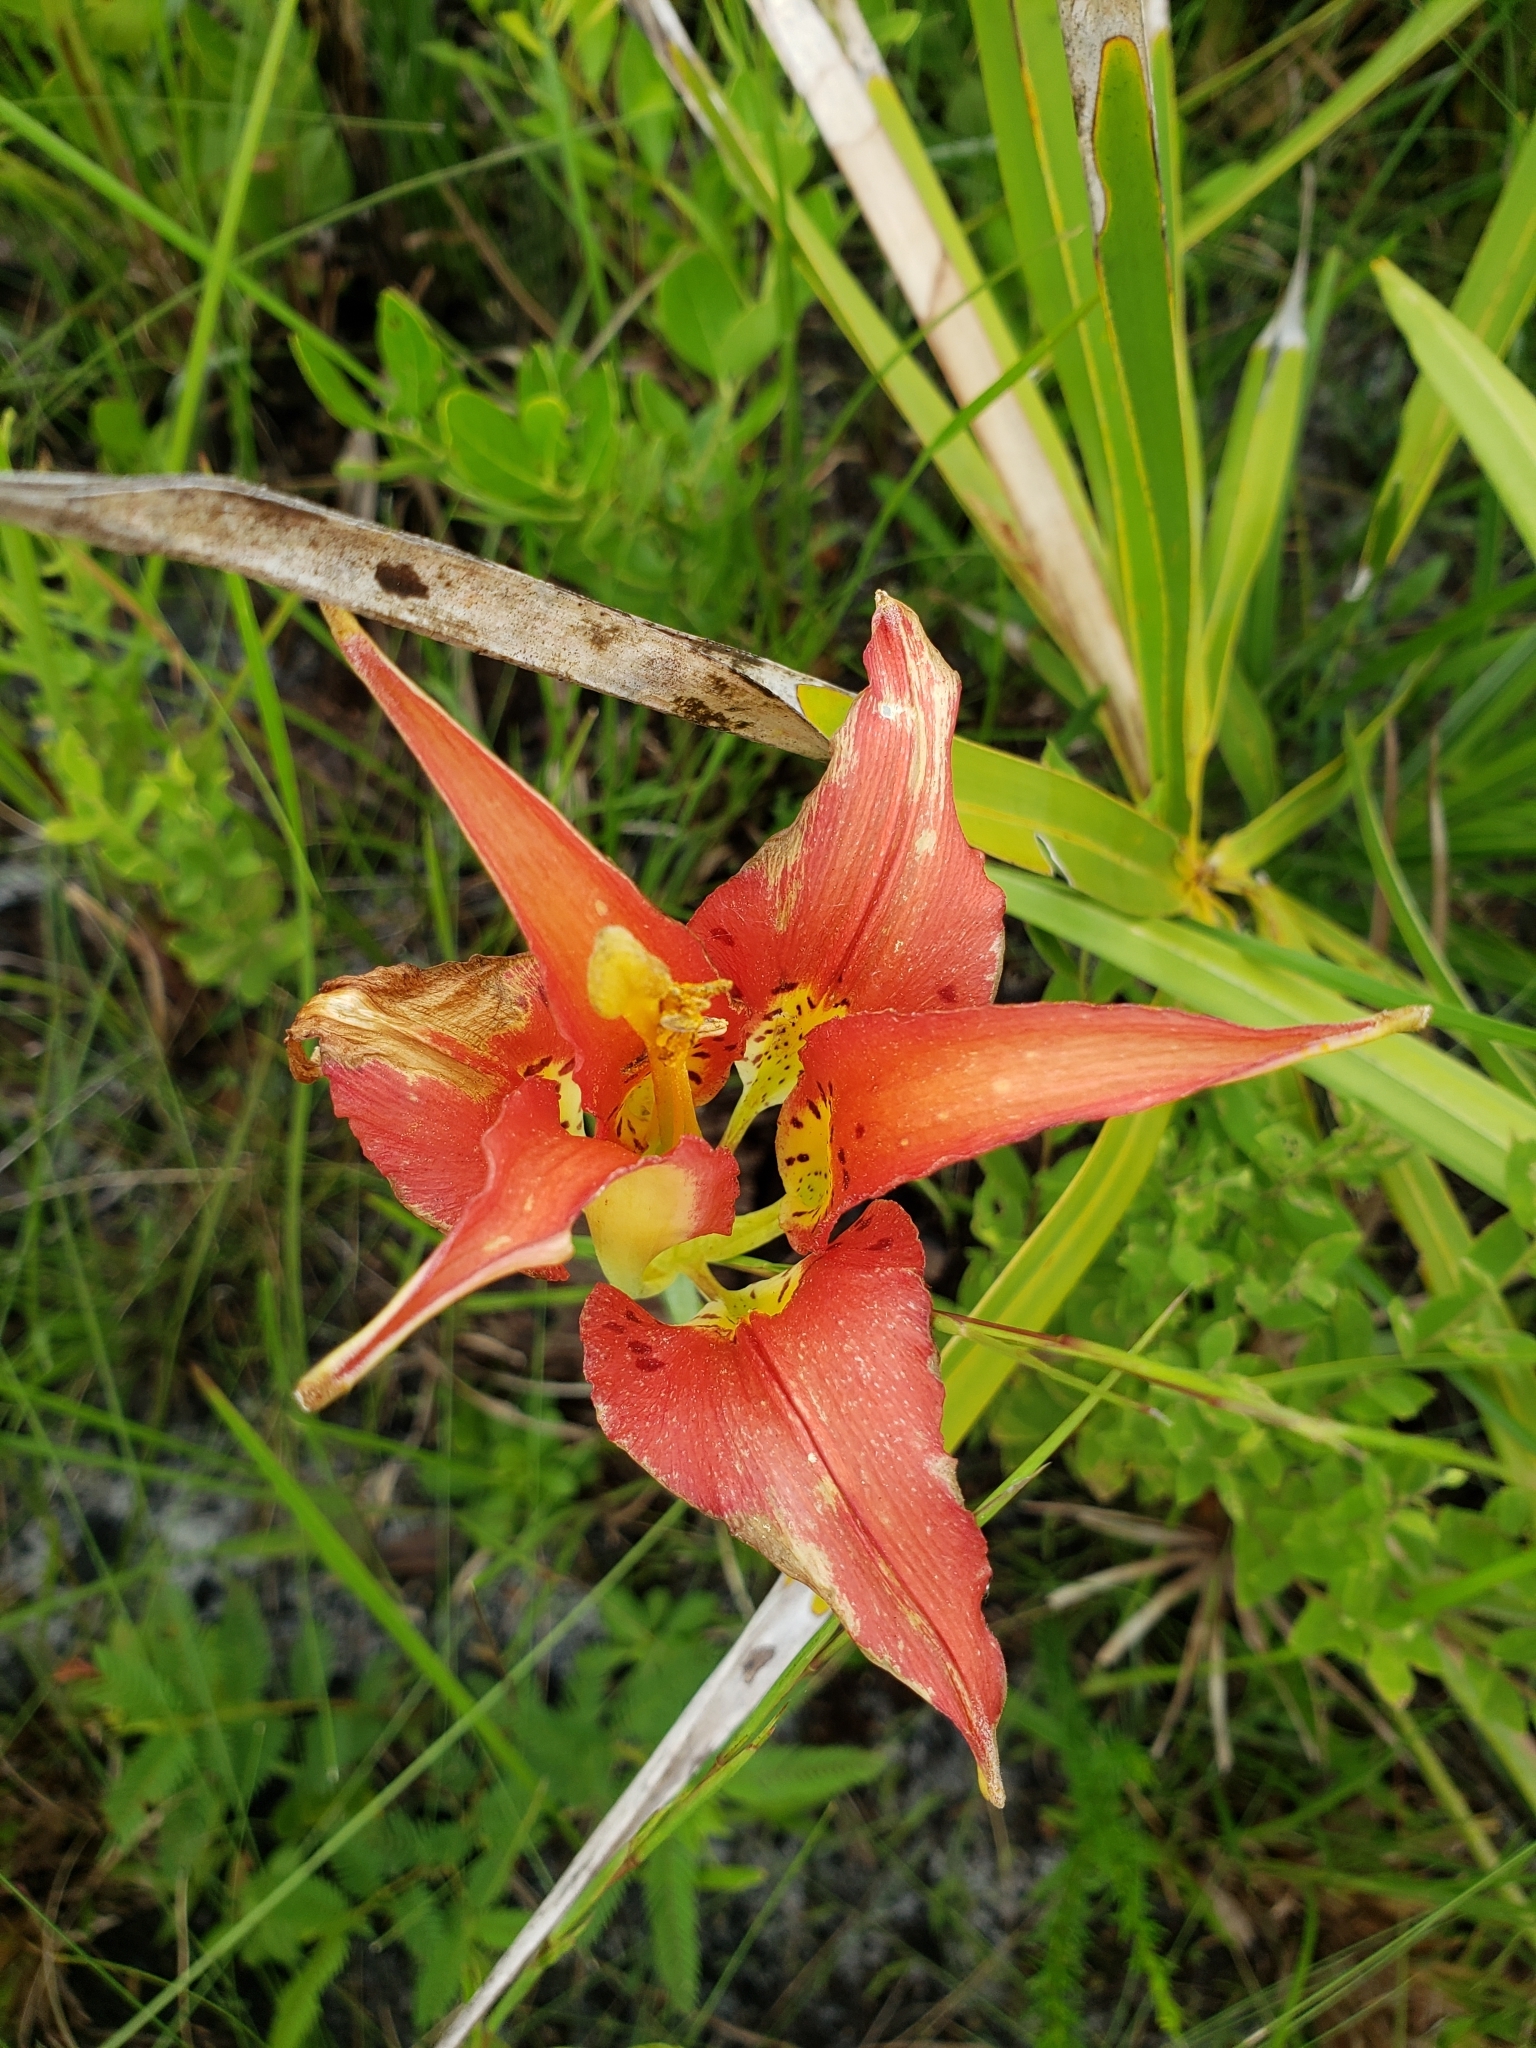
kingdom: Plantae
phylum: Tracheophyta
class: Liliopsida
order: Liliales
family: Liliaceae
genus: Lilium
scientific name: Lilium catesbaei
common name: Catesby's lily
